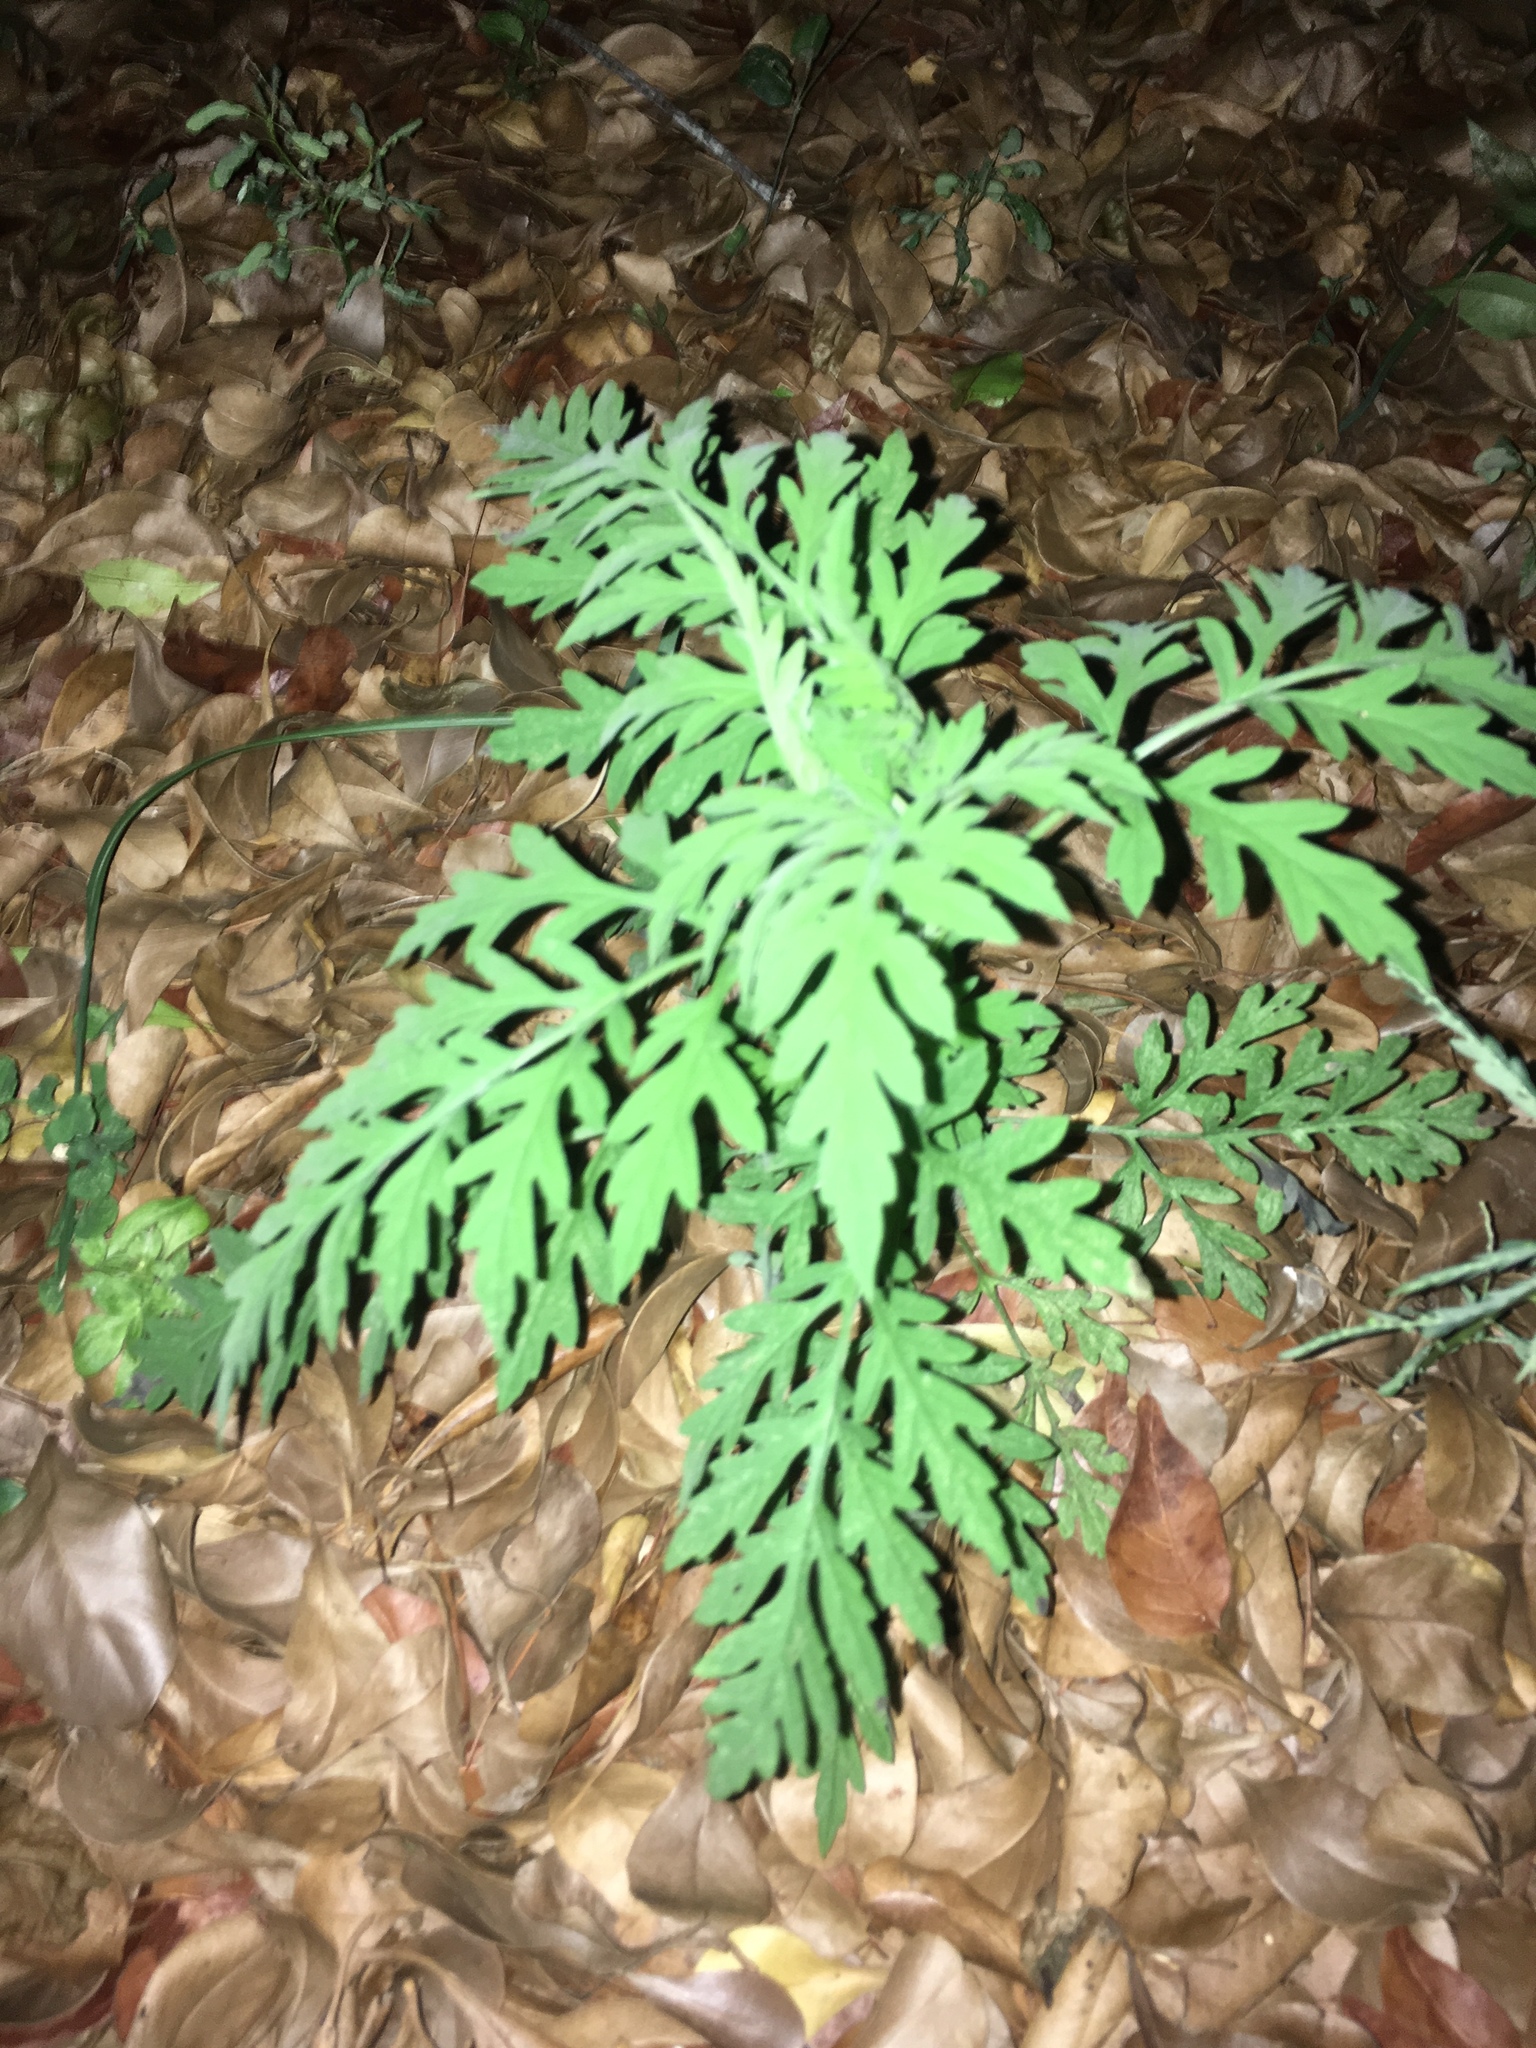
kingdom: Plantae
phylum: Tracheophyta
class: Magnoliopsida
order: Asterales
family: Asteraceae
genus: Ambrosia
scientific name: Ambrosia artemisiifolia
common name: Annual ragweed
